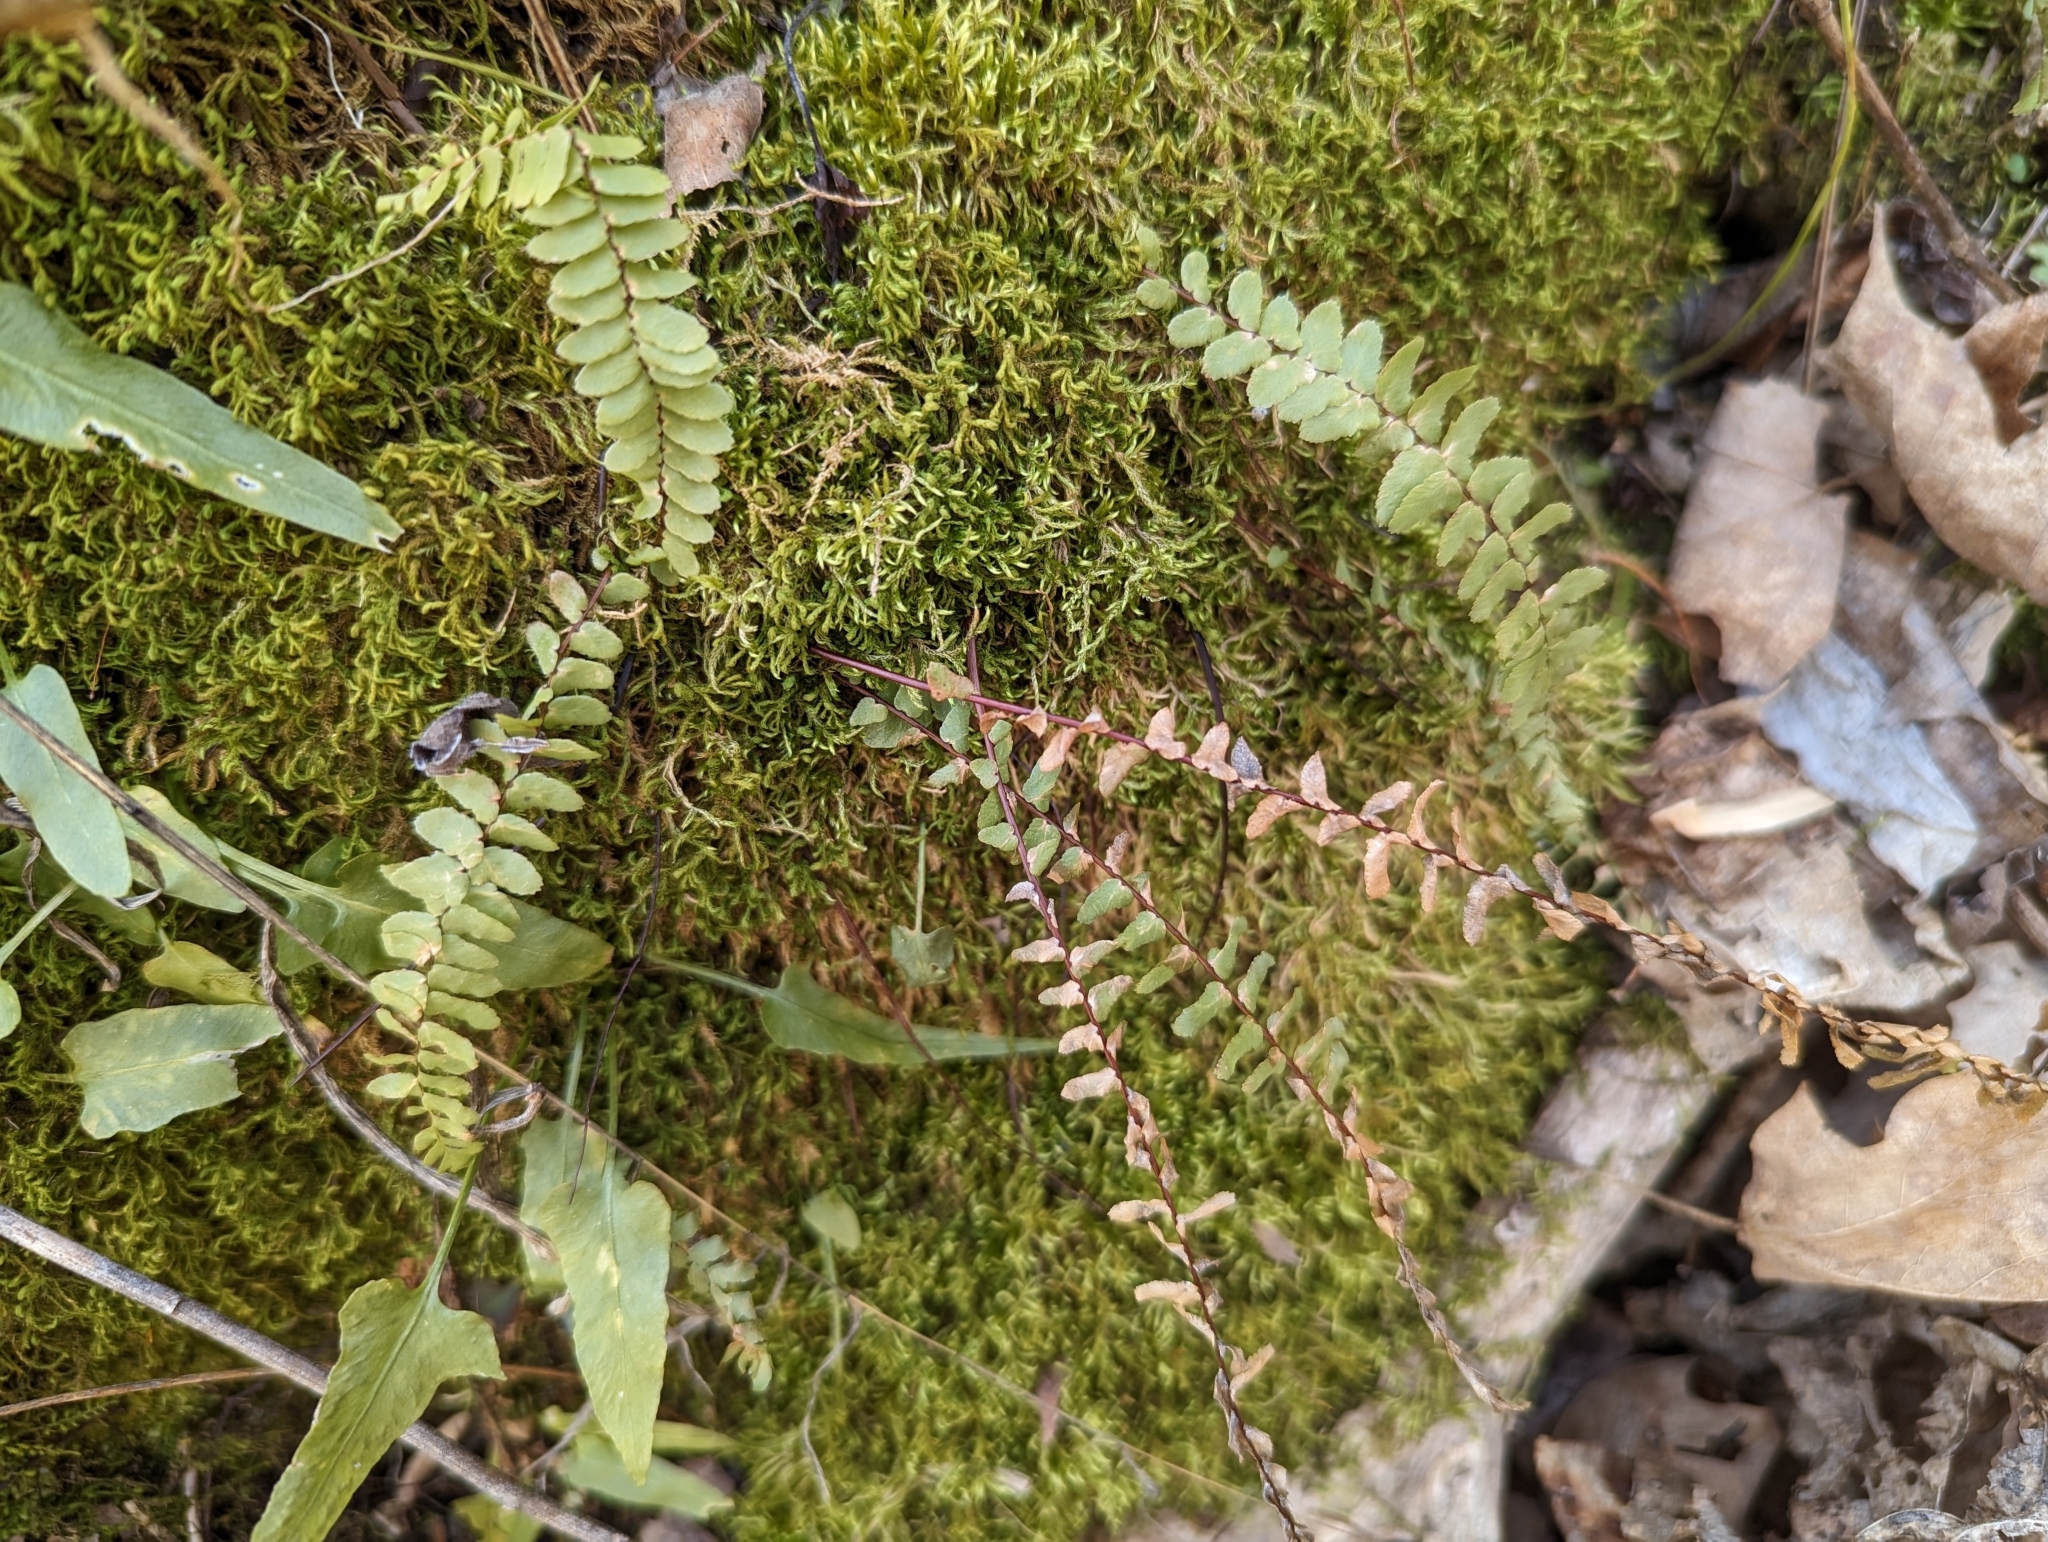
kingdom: Plantae
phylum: Tracheophyta
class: Polypodiopsida
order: Polypodiales
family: Aspleniaceae
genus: Asplenium
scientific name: Asplenium platyneuron
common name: Ebony spleenwort
